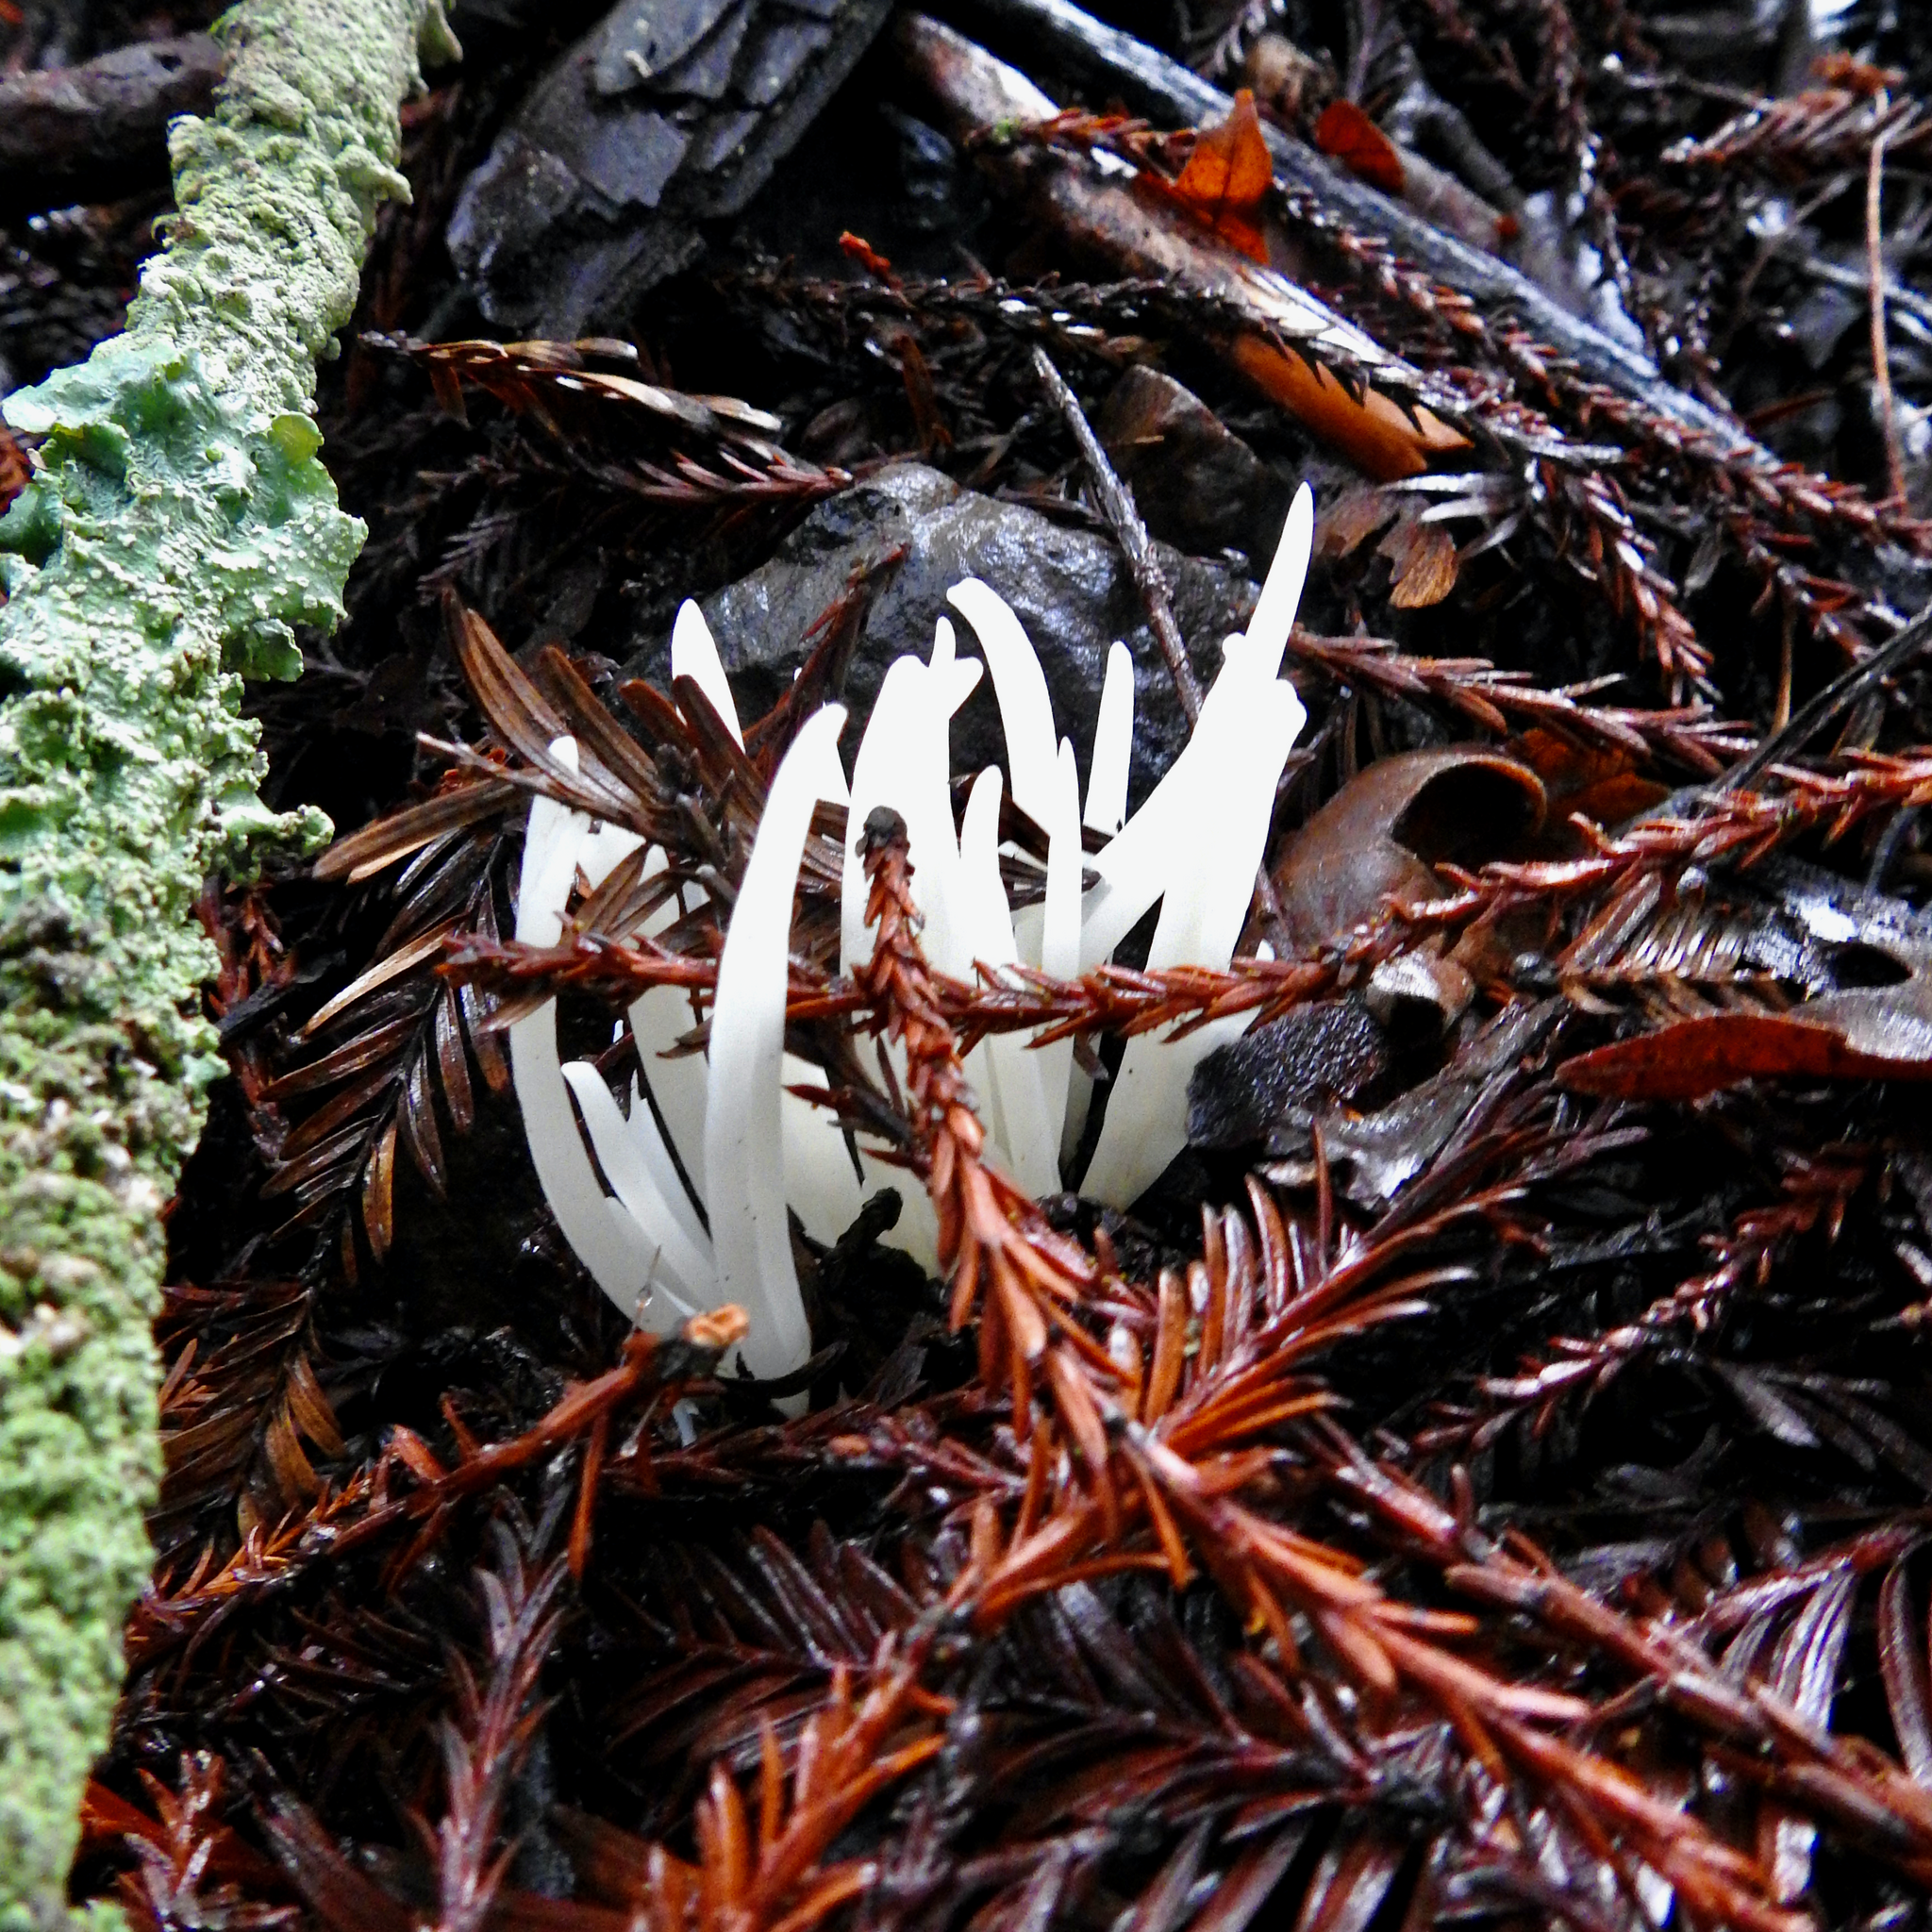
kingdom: Fungi
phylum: Basidiomycota
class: Agaricomycetes
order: Agaricales
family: Clavariaceae
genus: Clavaria
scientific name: Clavaria fragilis
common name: White spindles
